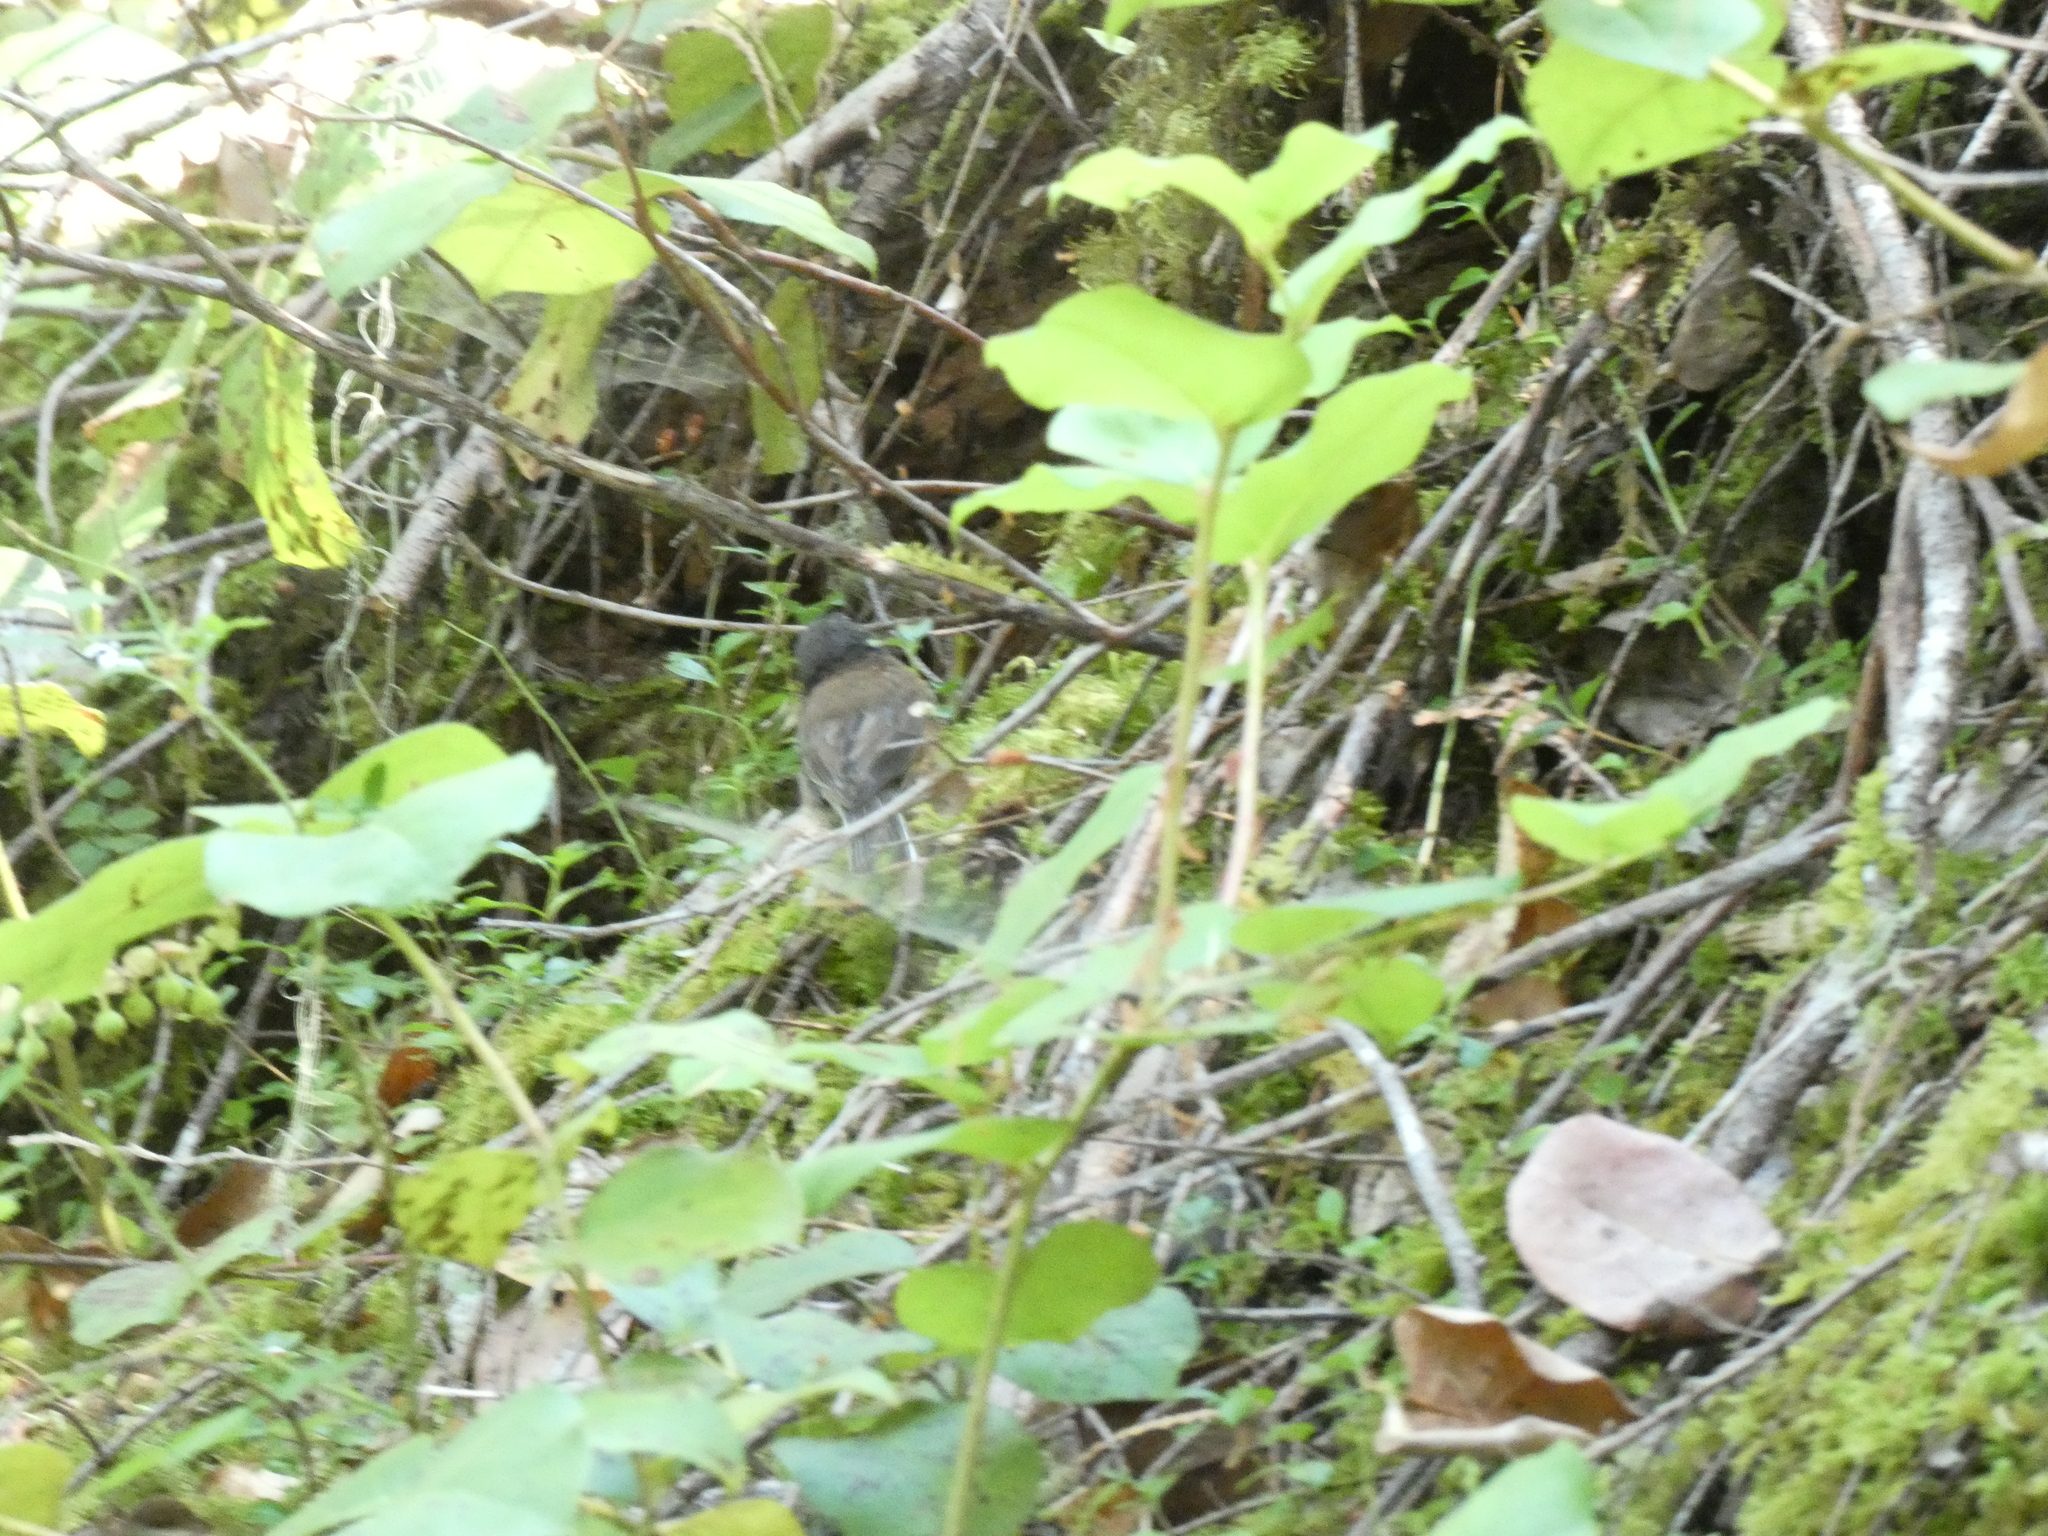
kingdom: Animalia
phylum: Chordata
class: Aves
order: Passeriformes
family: Passerellidae
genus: Junco
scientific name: Junco hyemalis
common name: Dark-eyed junco
